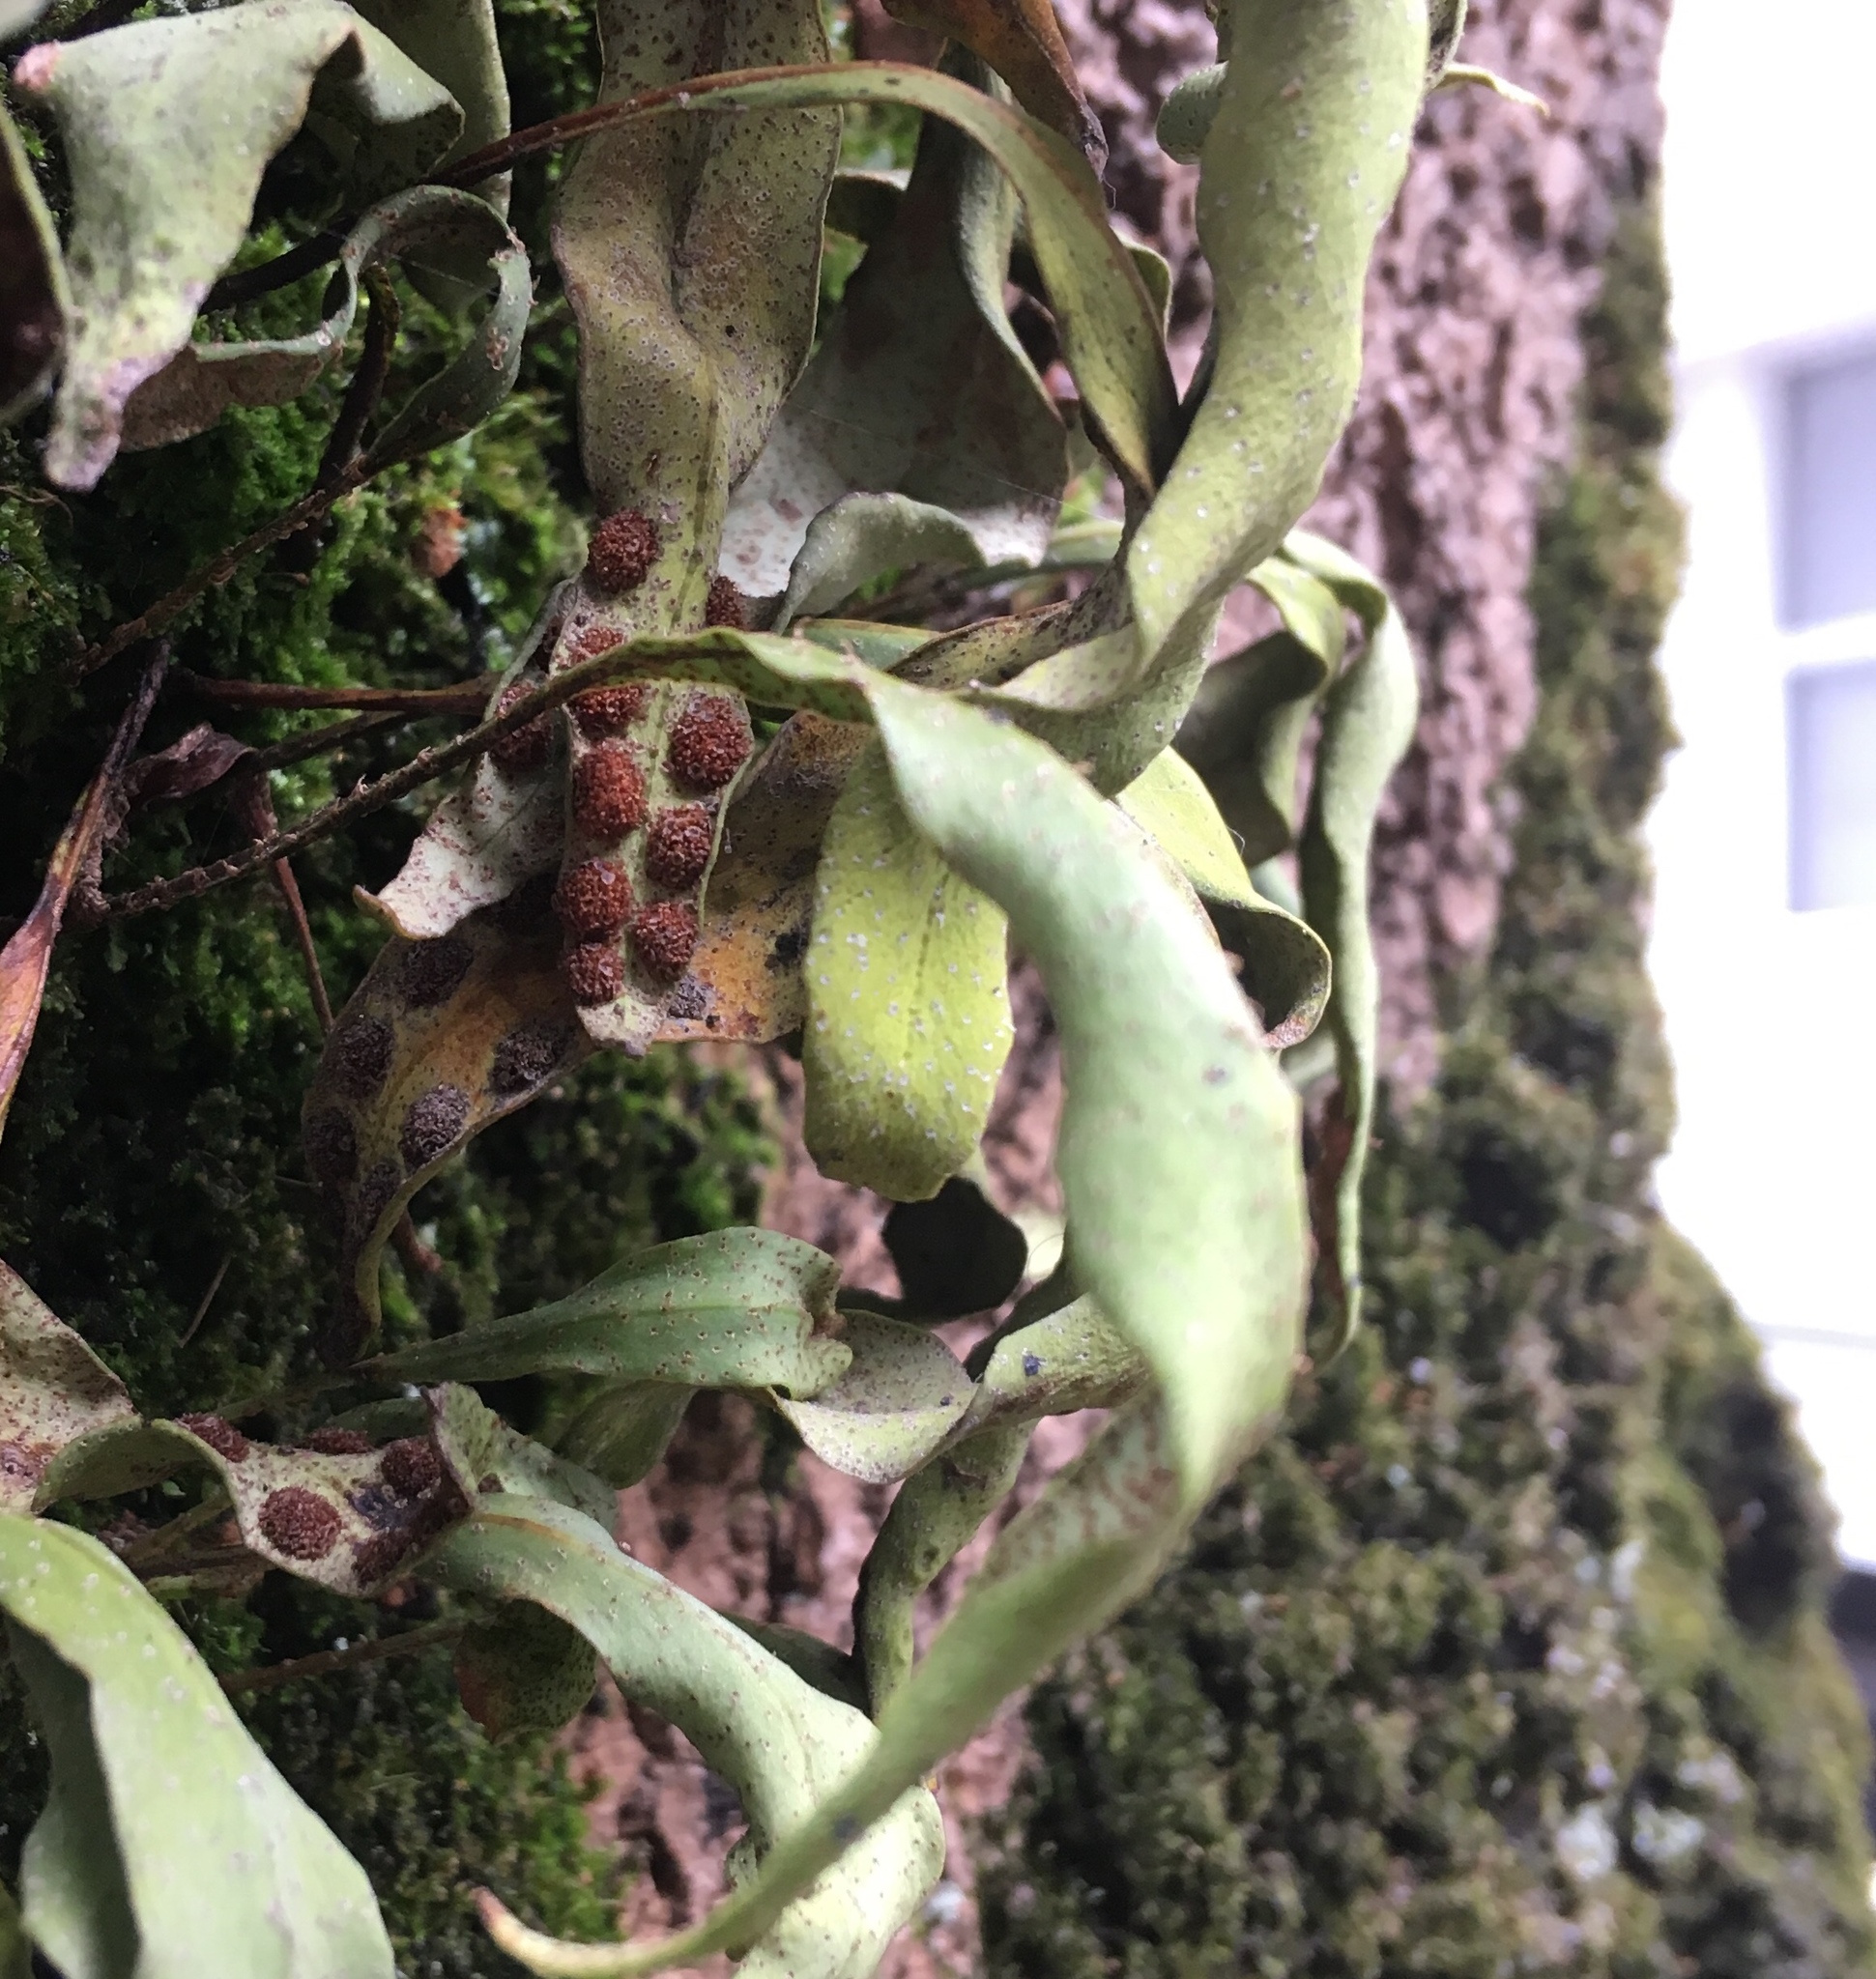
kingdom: Plantae
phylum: Tracheophyta
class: Polypodiopsida
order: Polypodiales
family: Polypodiaceae
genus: Pleopeltis
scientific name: Pleopeltis macrocarpa
